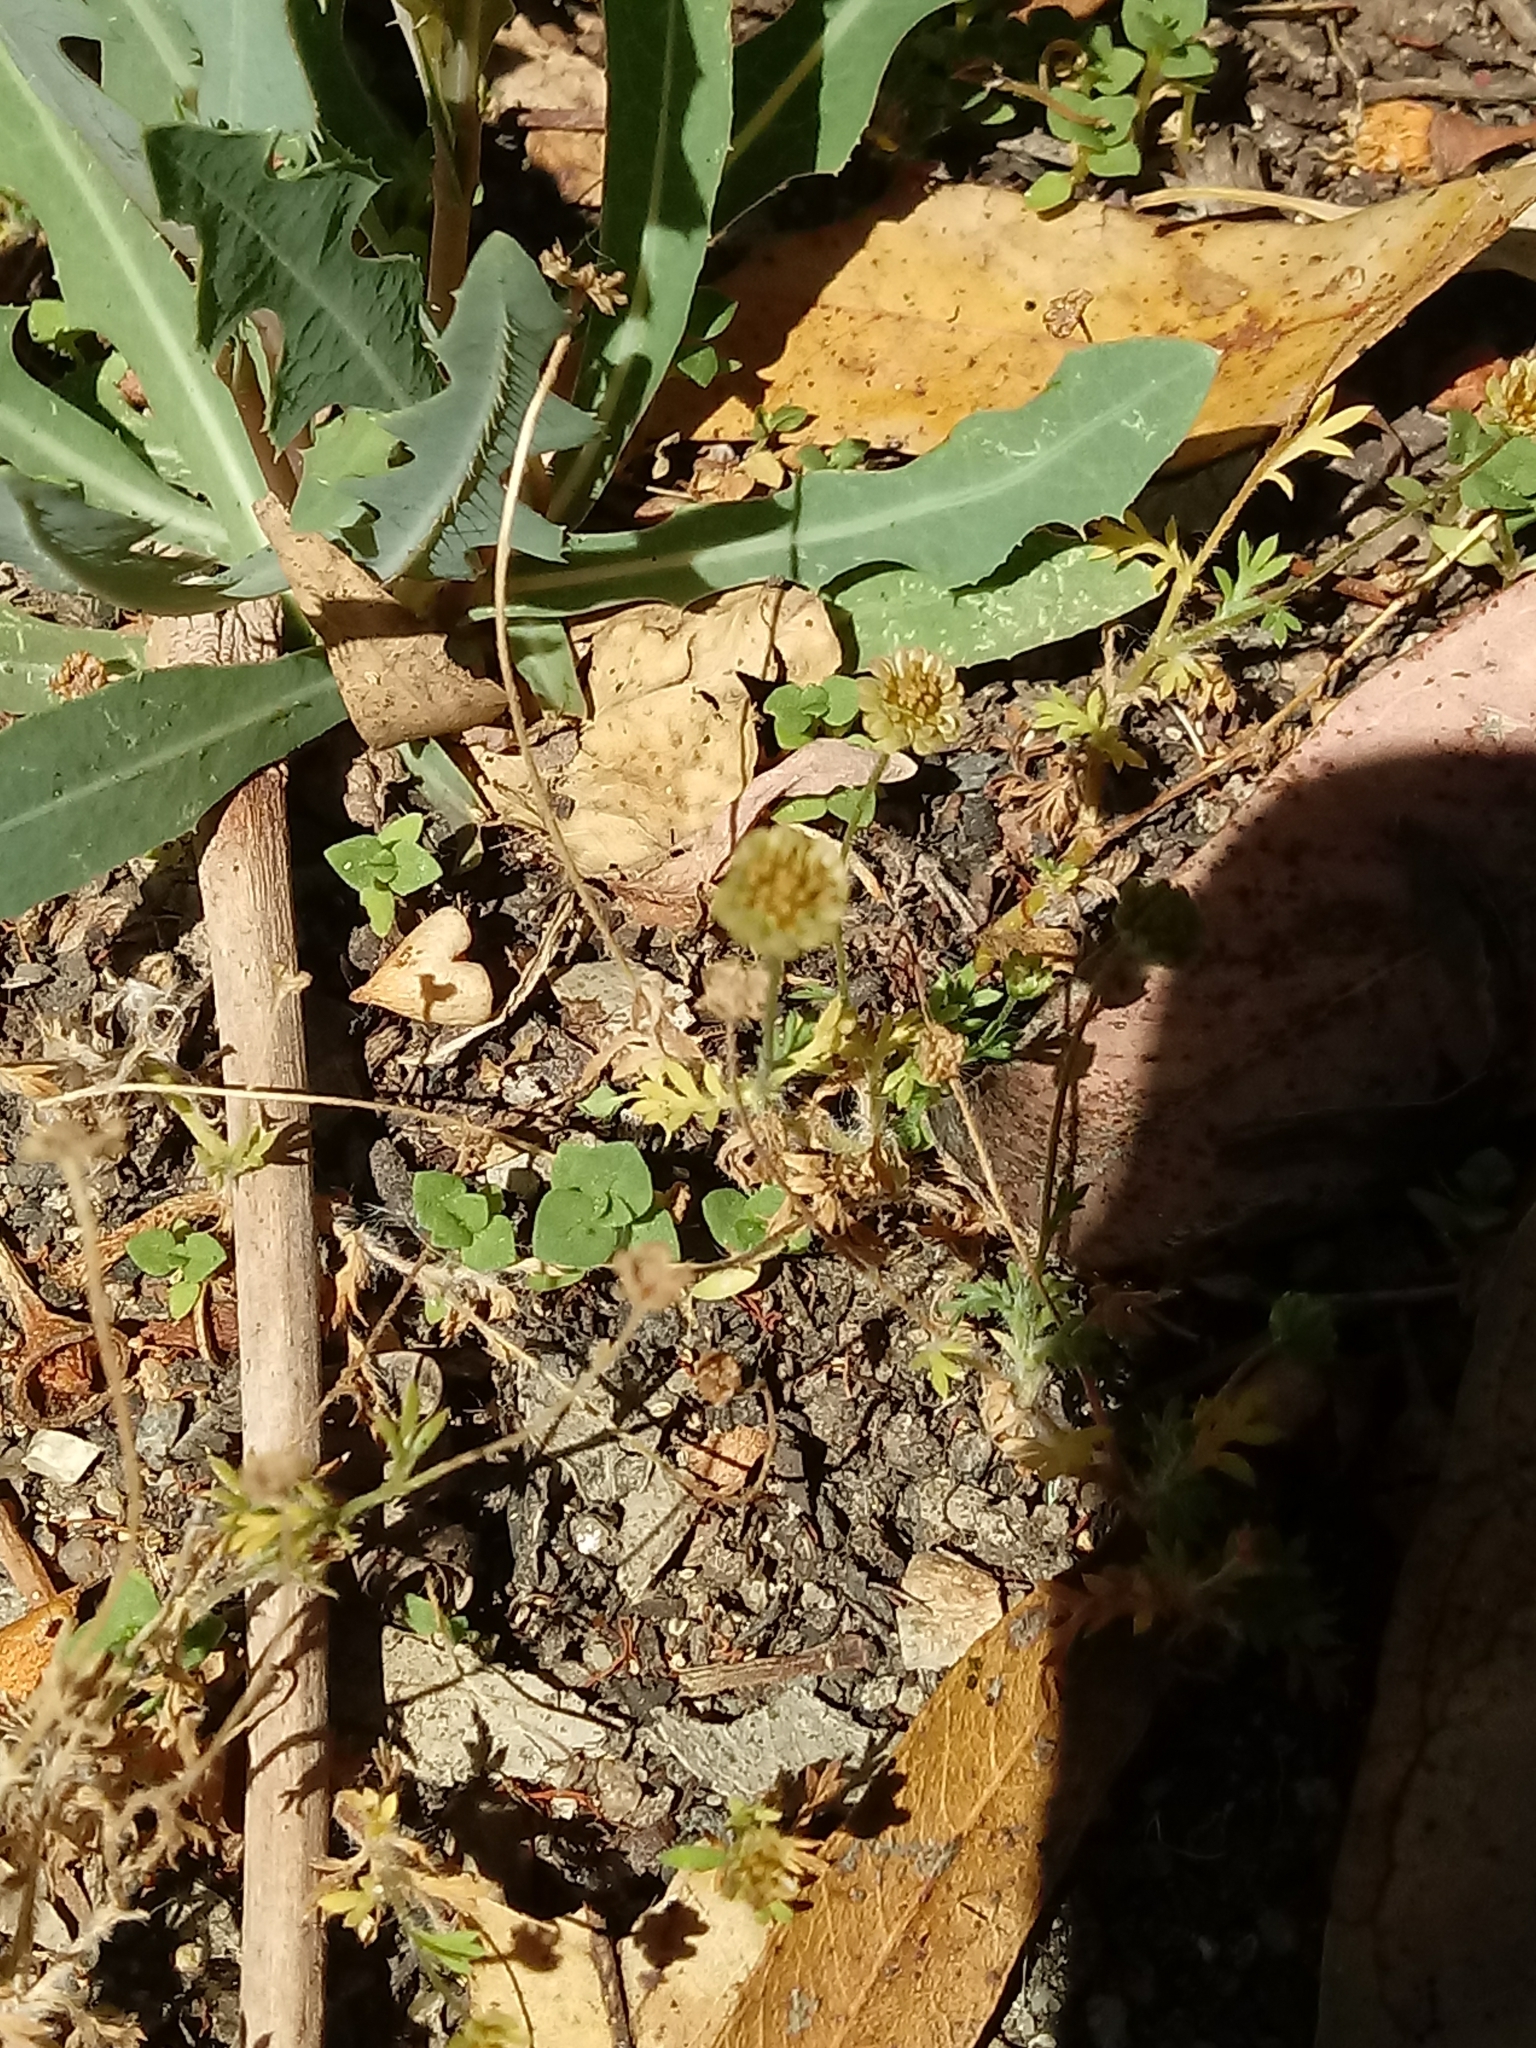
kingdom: Plantae
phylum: Tracheophyta
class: Magnoliopsida
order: Asterales
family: Asteraceae
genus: Cotula
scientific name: Cotula australis
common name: Australian waterbuttons
